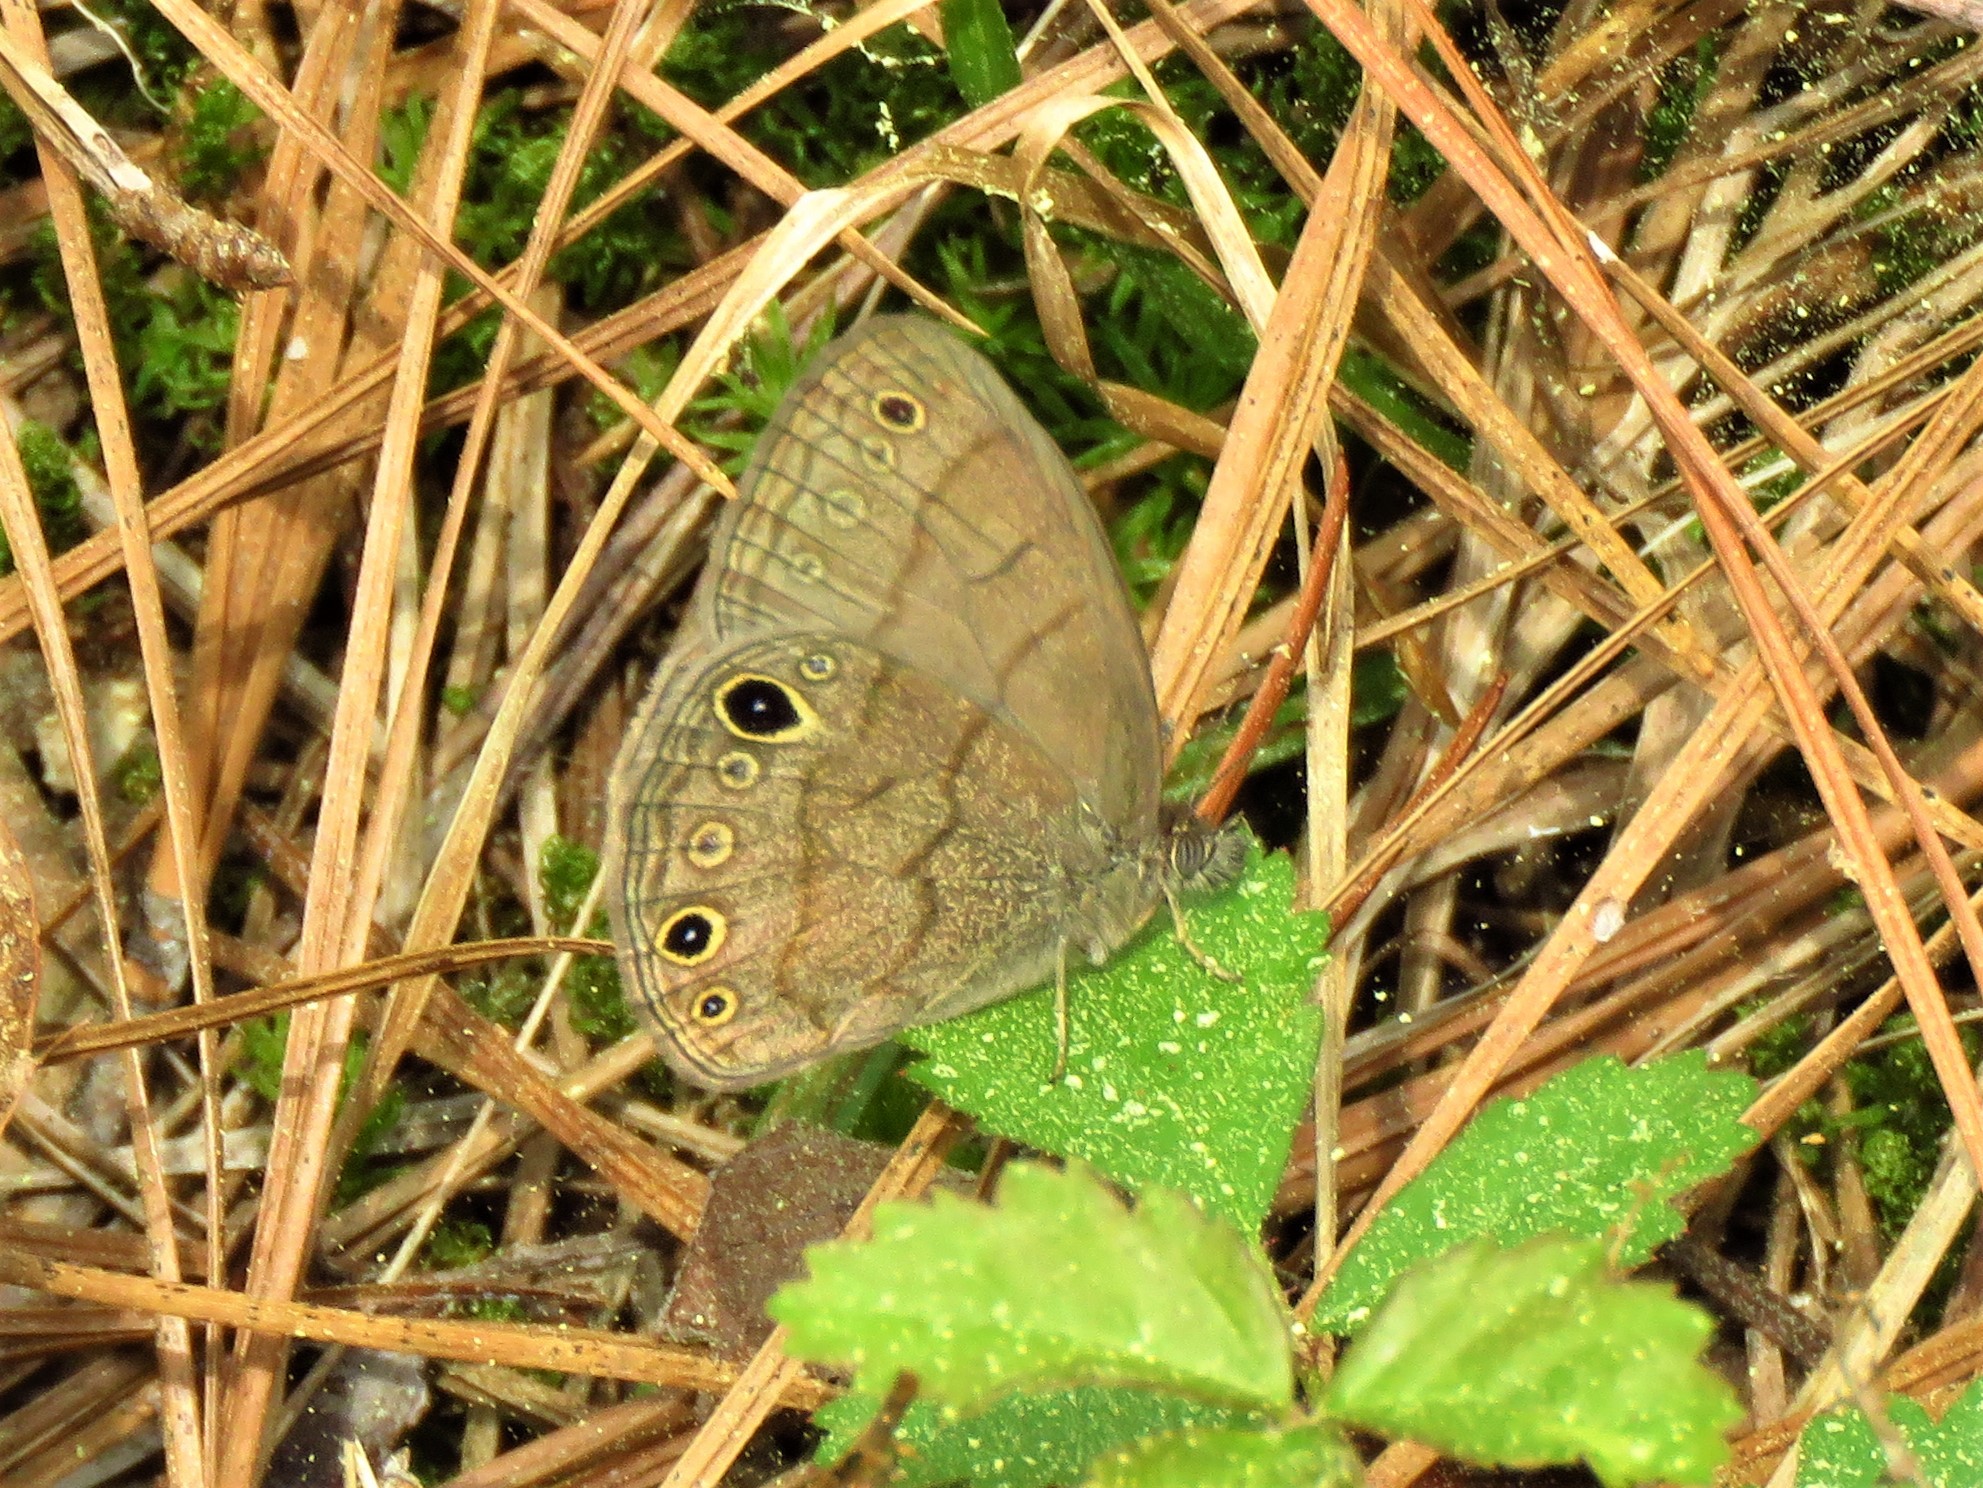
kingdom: Animalia
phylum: Arthropoda
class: Insecta
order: Lepidoptera
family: Nymphalidae
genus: Hermeuptychia
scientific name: Hermeuptychia hermes
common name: Hermes satyr
